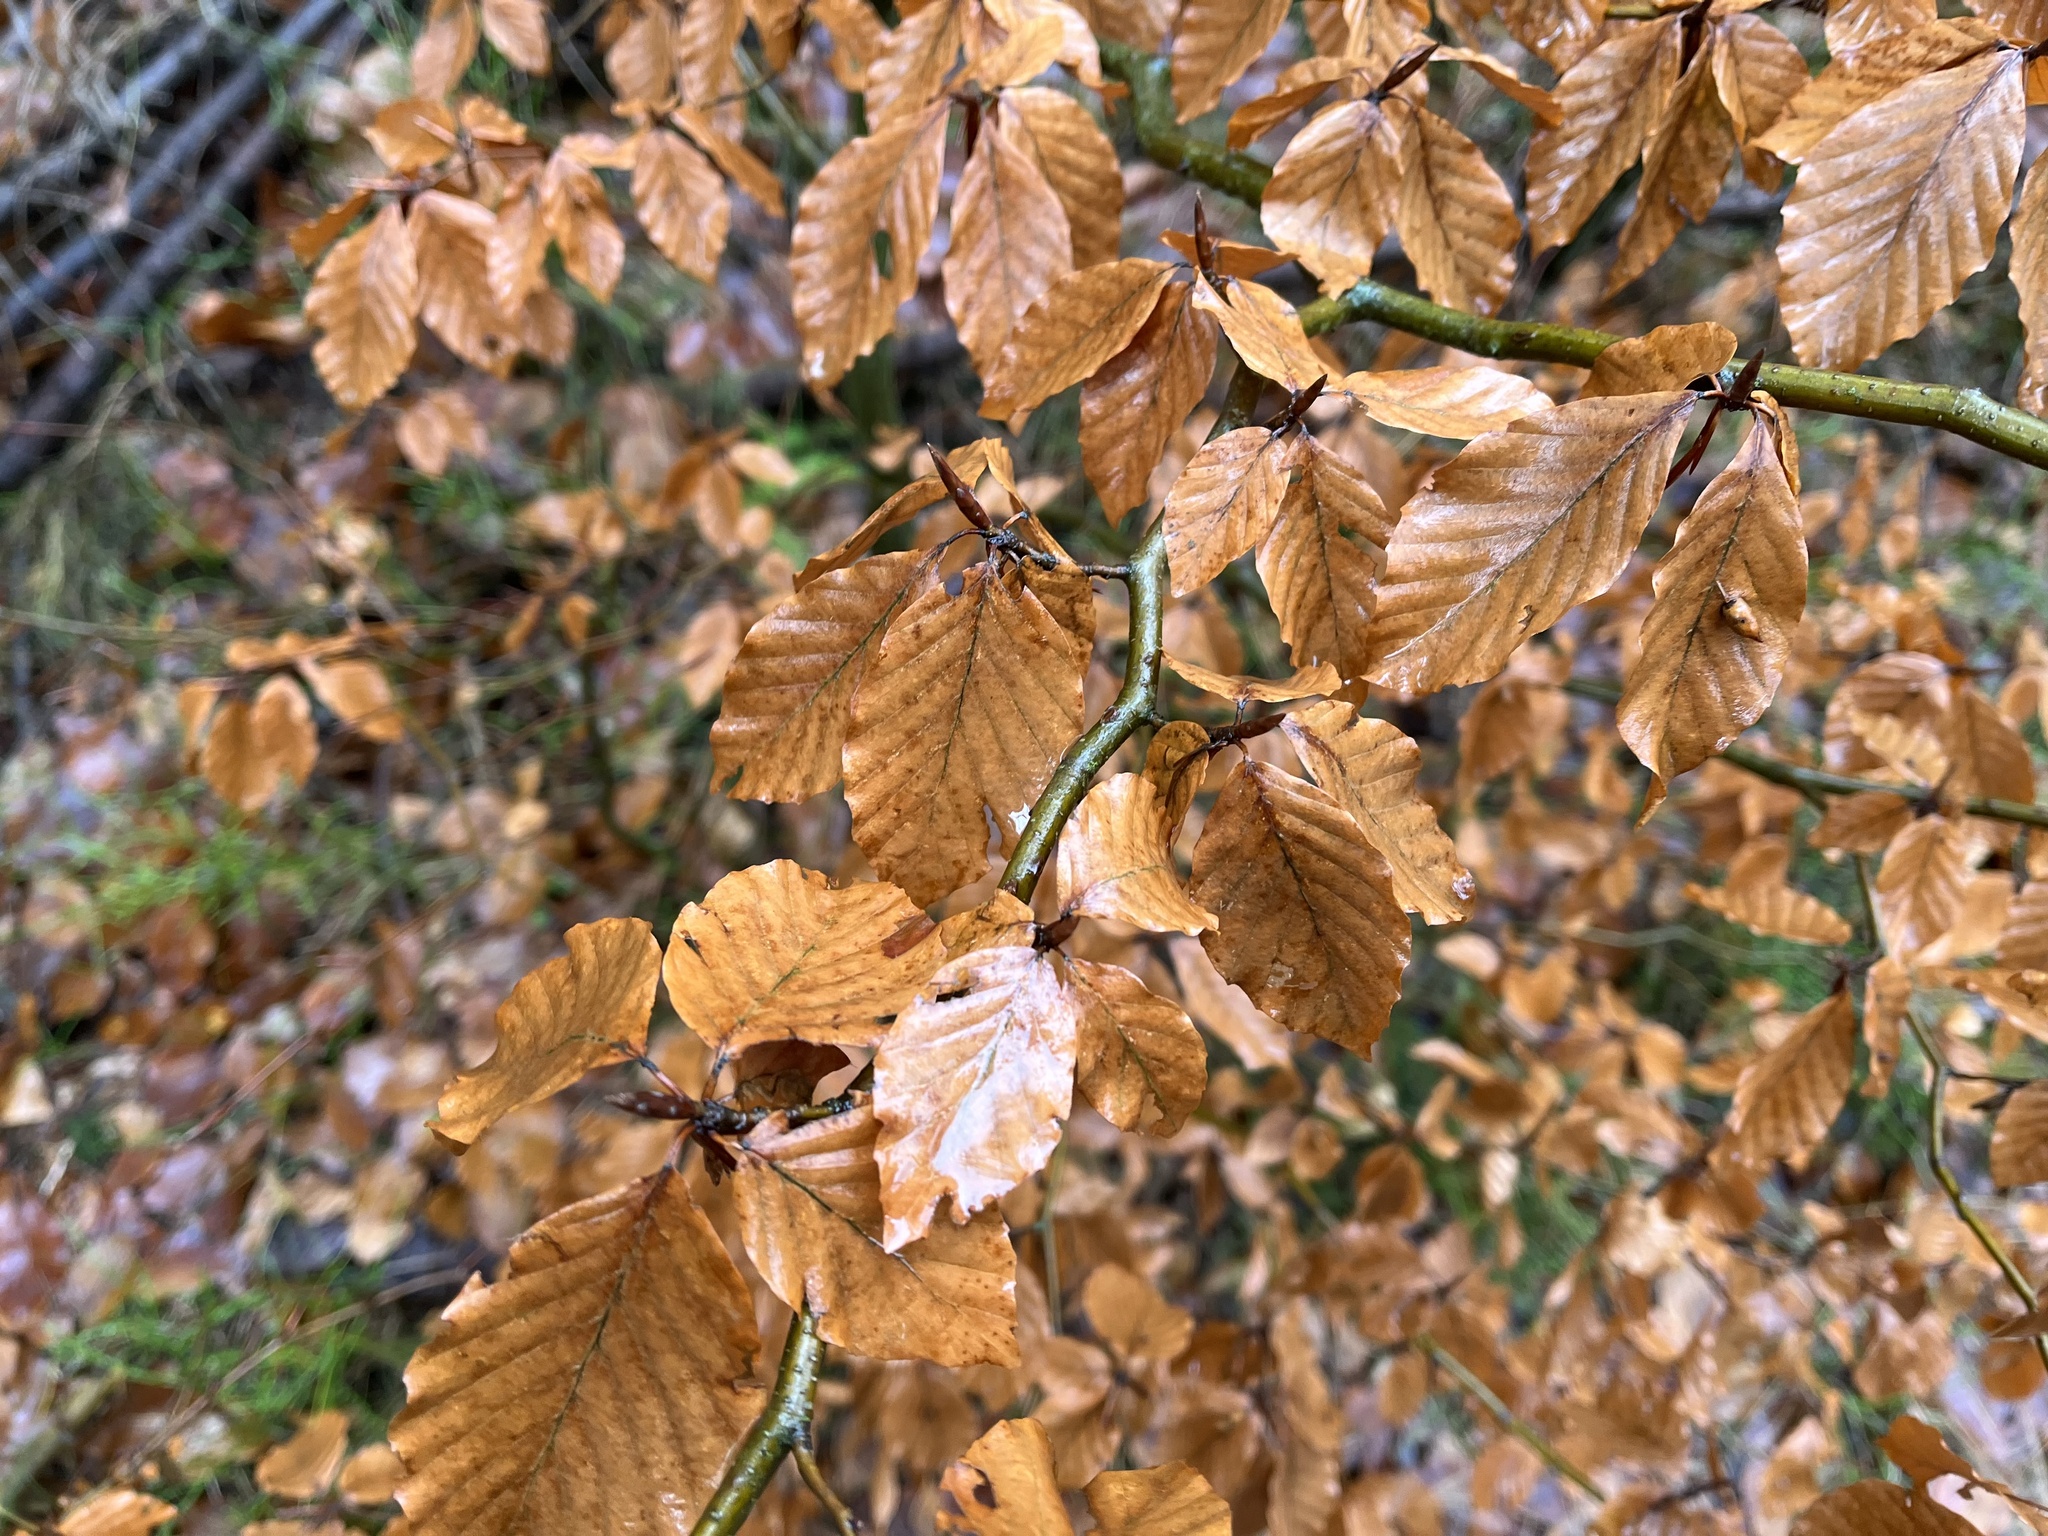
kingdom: Plantae
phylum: Tracheophyta
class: Magnoliopsida
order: Fagales
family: Fagaceae
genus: Fagus
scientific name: Fagus sylvatica
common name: Beech
